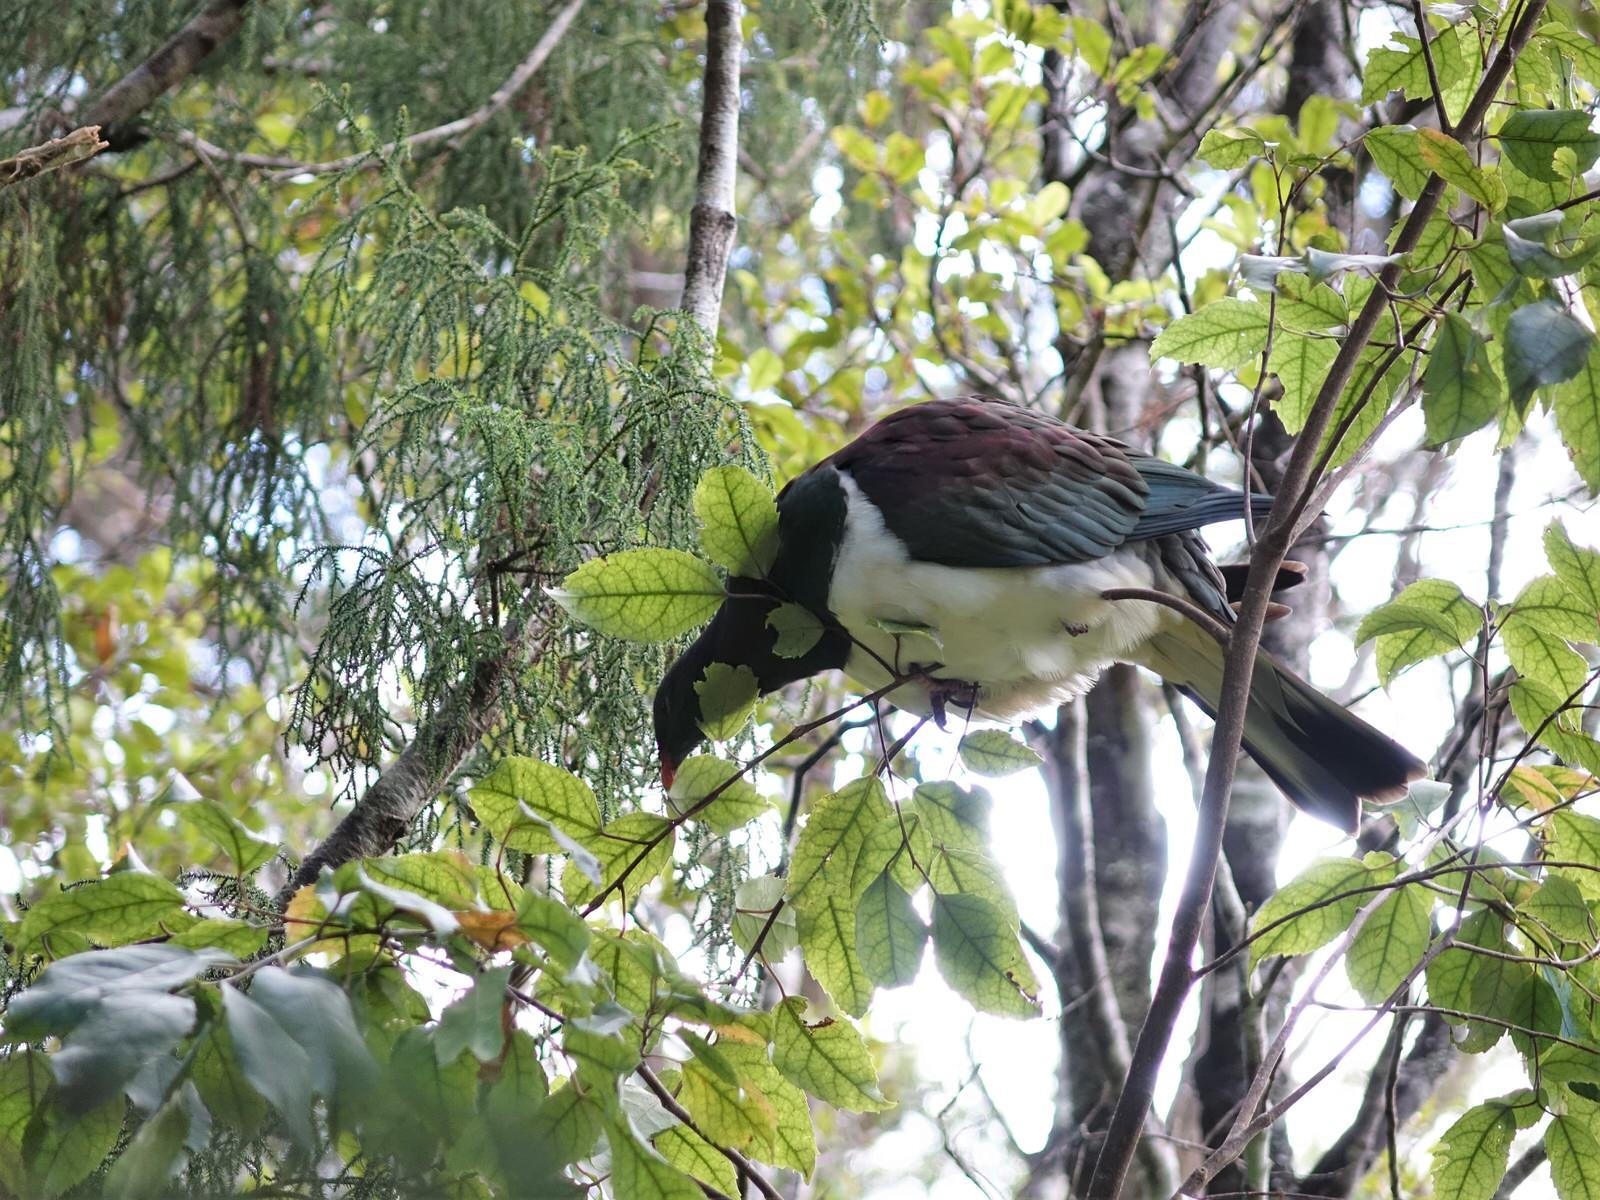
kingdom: Animalia
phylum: Chordata
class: Aves
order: Columbiformes
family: Columbidae
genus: Hemiphaga
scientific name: Hemiphaga novaeseelandiae
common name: New zealand pigeon
